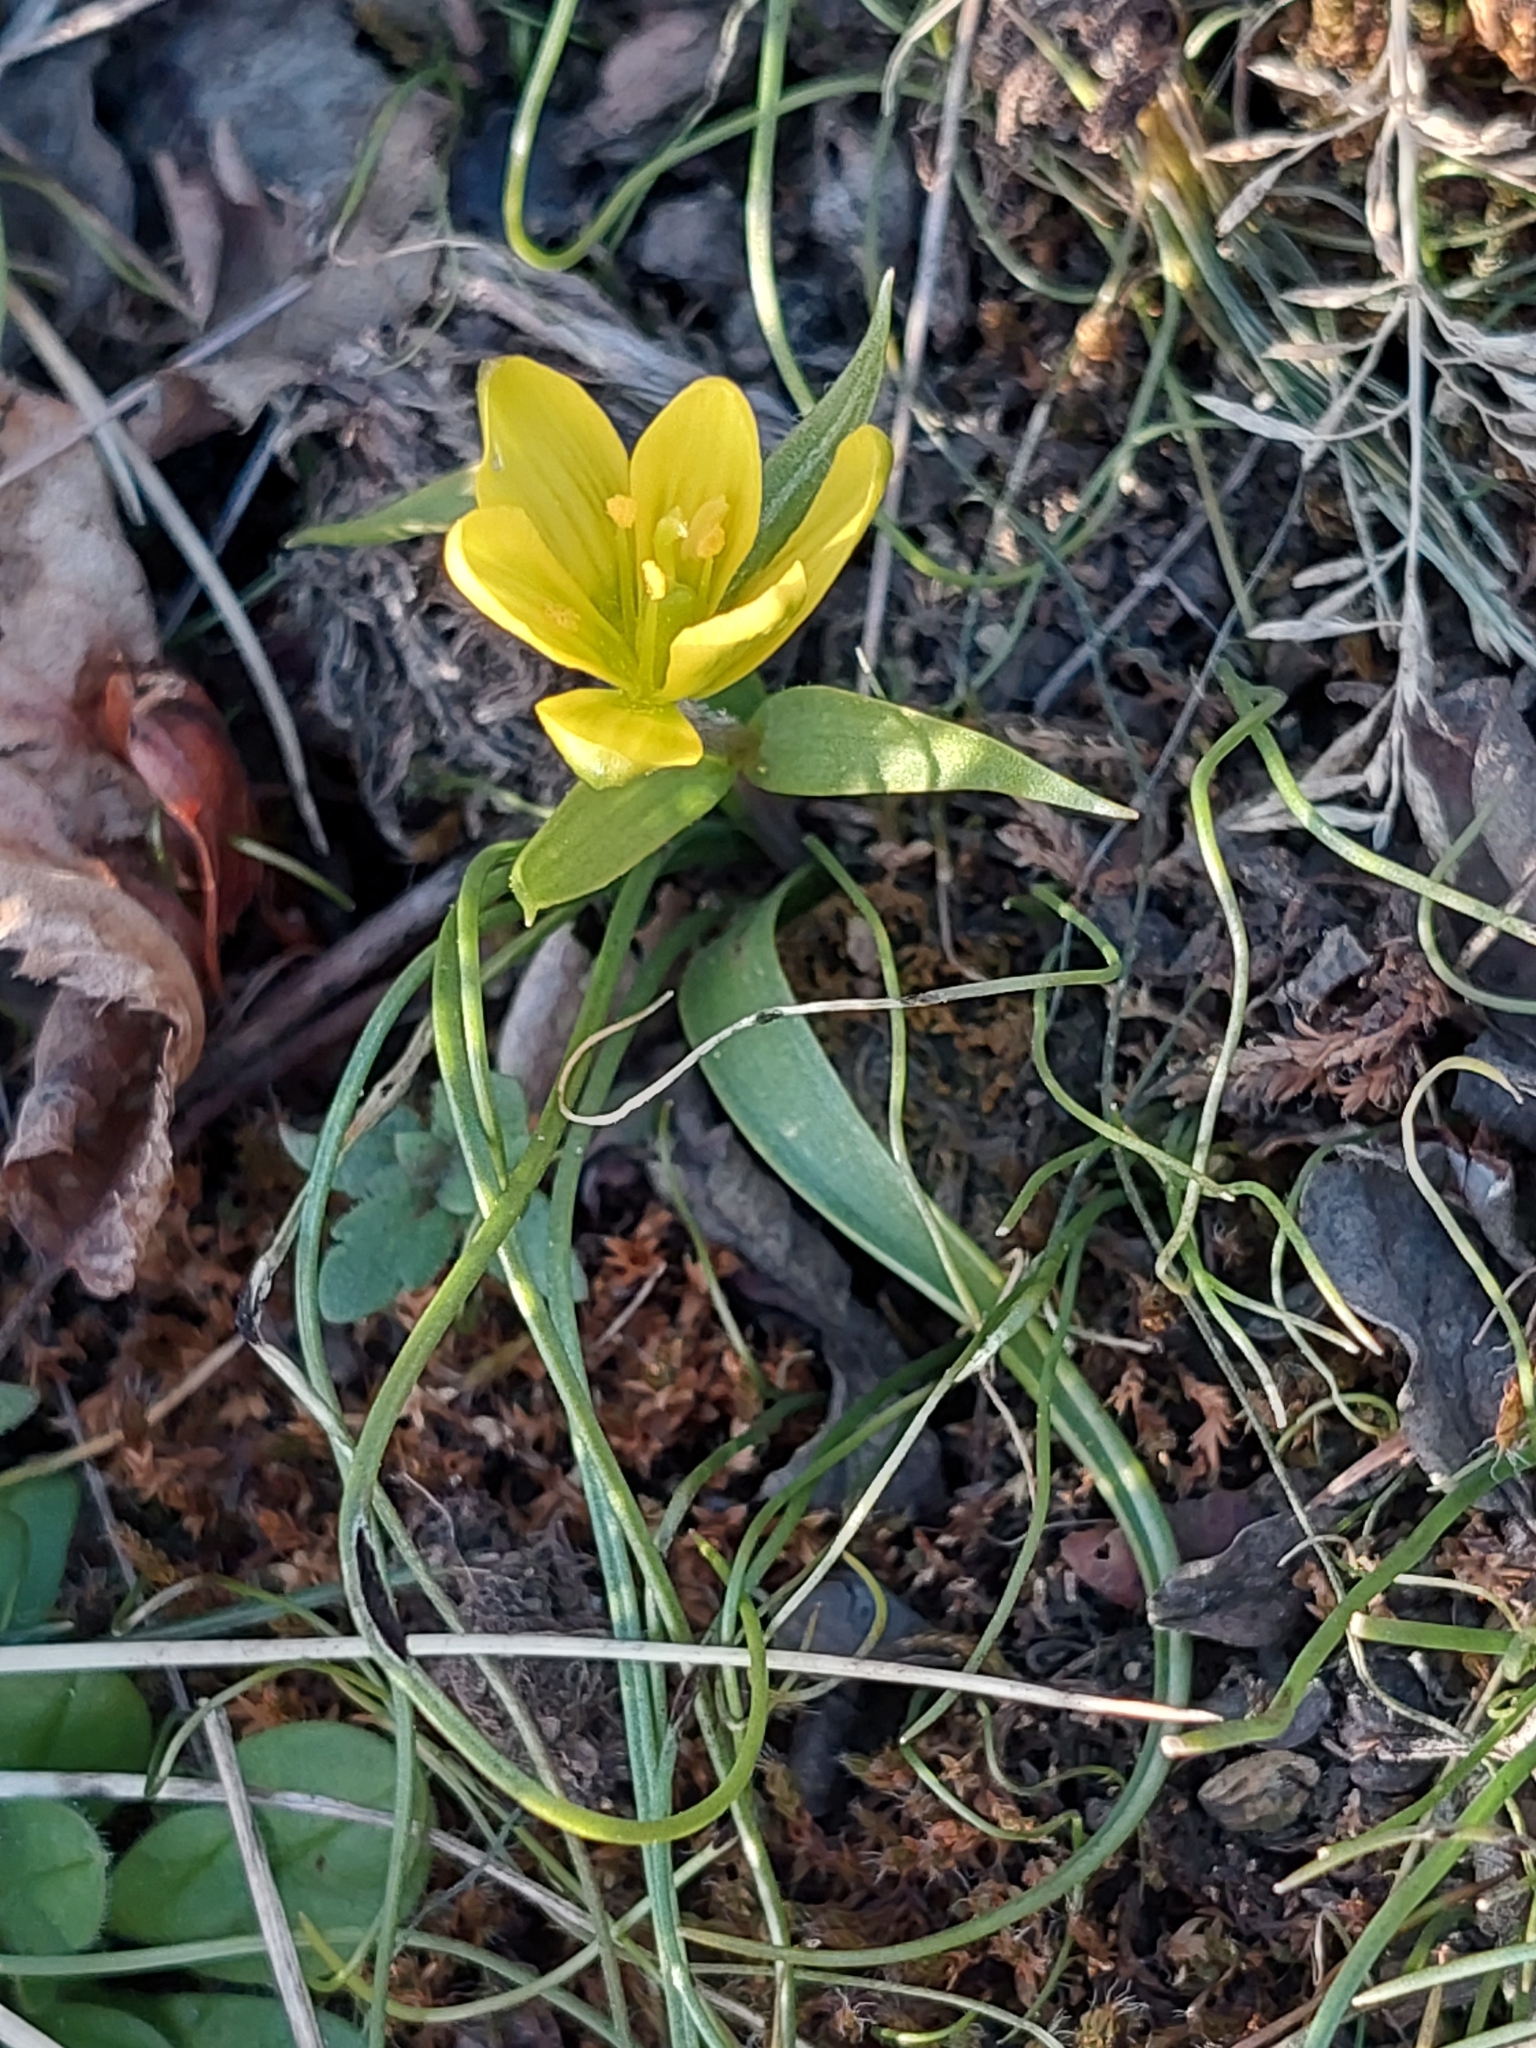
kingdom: Plantae
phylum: Tracheophyta
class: Liliopsida
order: Liliales
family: Liliaceae
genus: Gagea
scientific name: Gagea bohemica
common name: Early star-of-bethlehem
